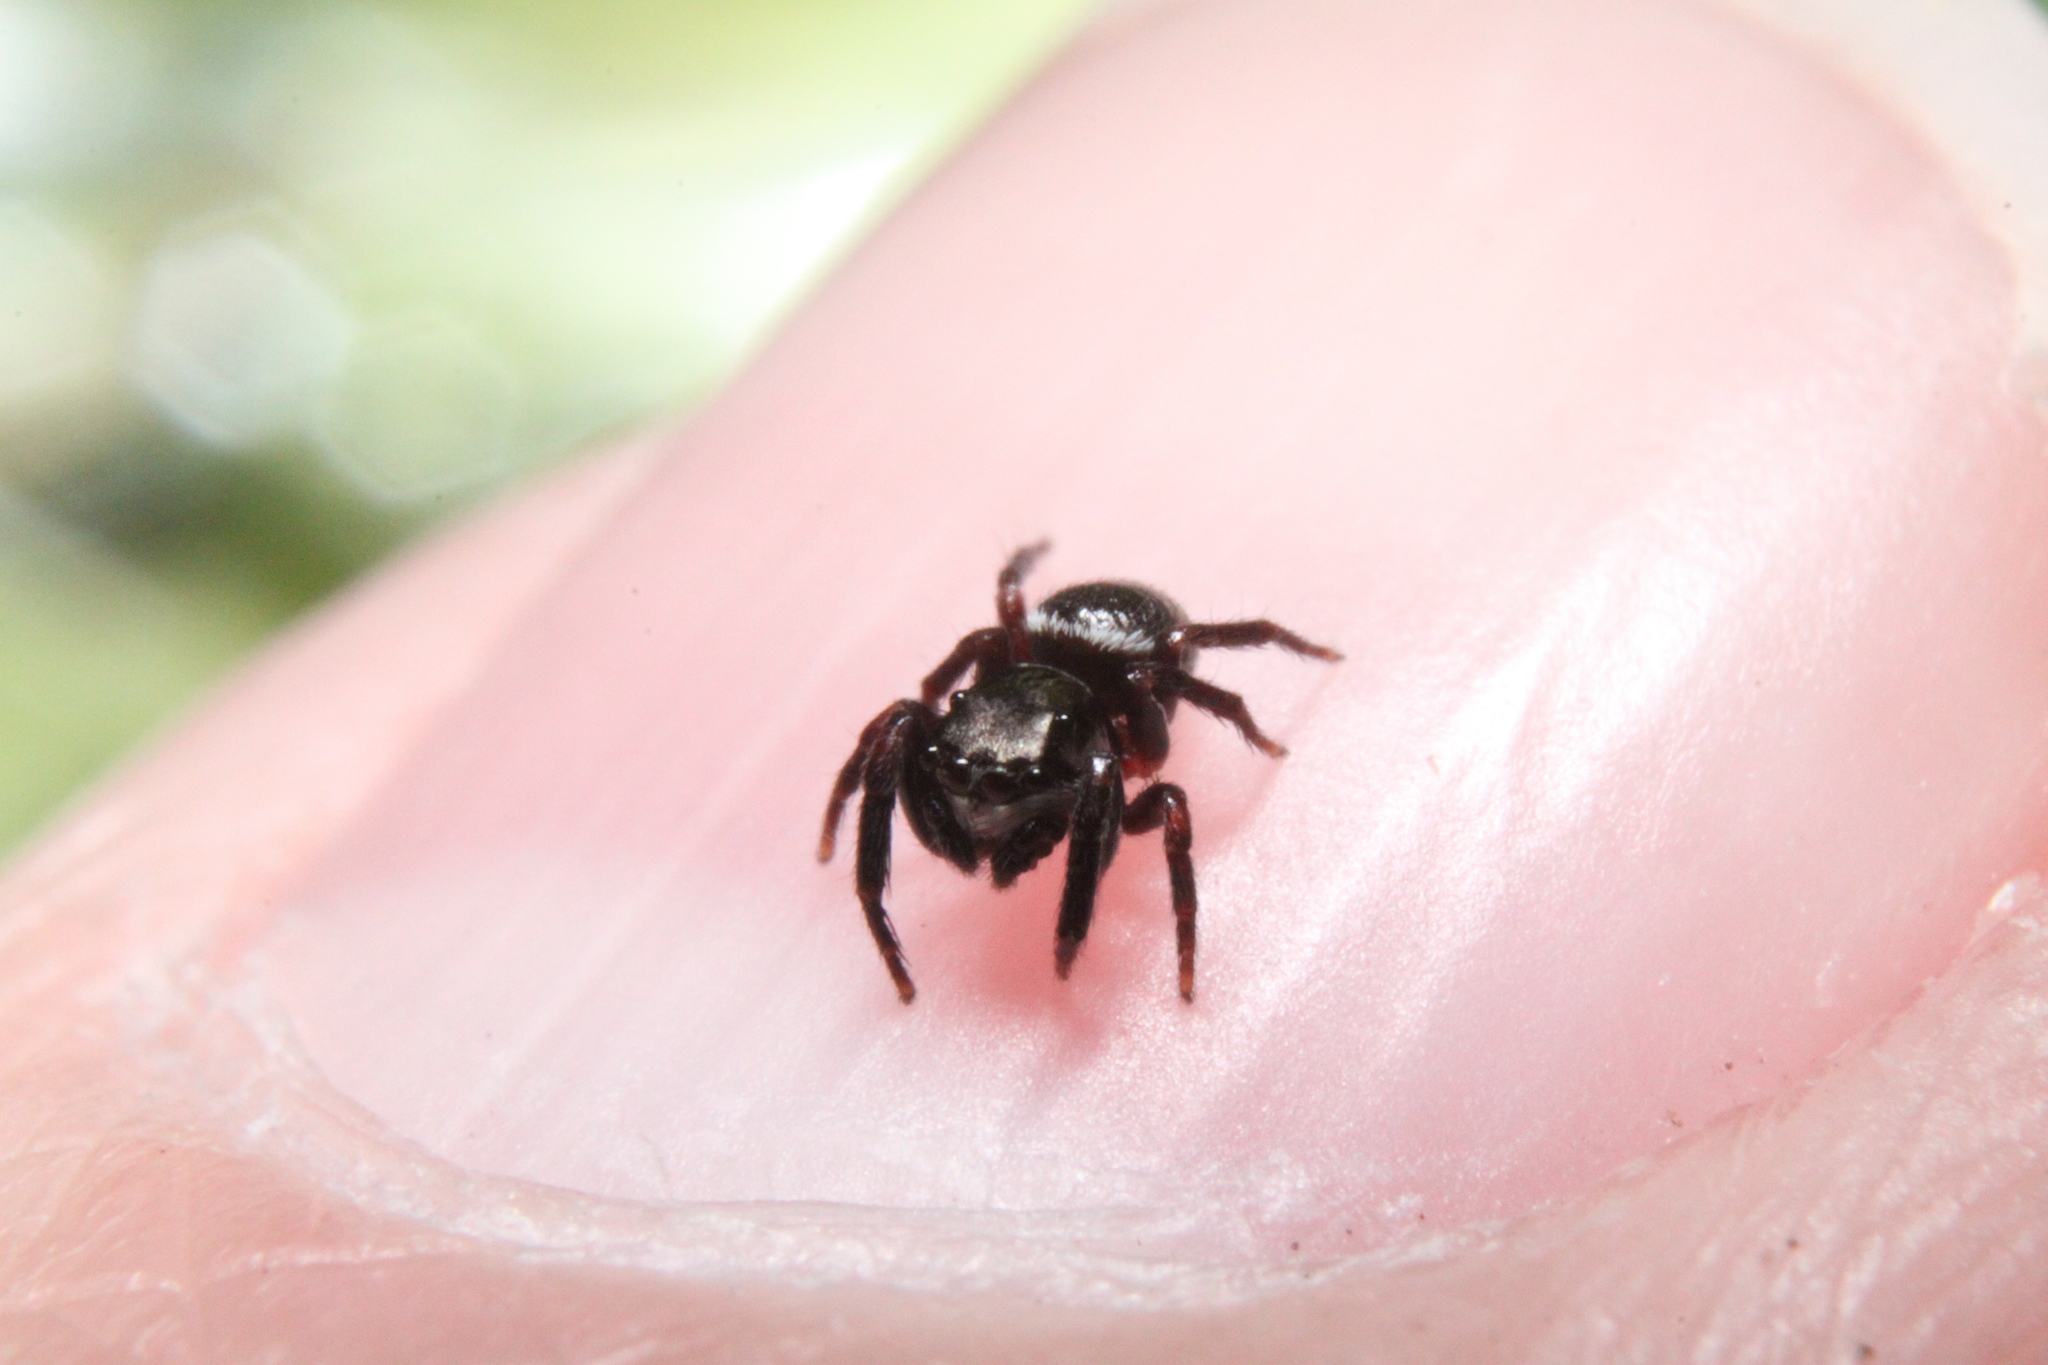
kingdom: Animalia
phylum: Arthropoda
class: Arachnida
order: Araneae
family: Salticidae
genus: Chalcoscirtus
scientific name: Chalcoscirtus diminutus
